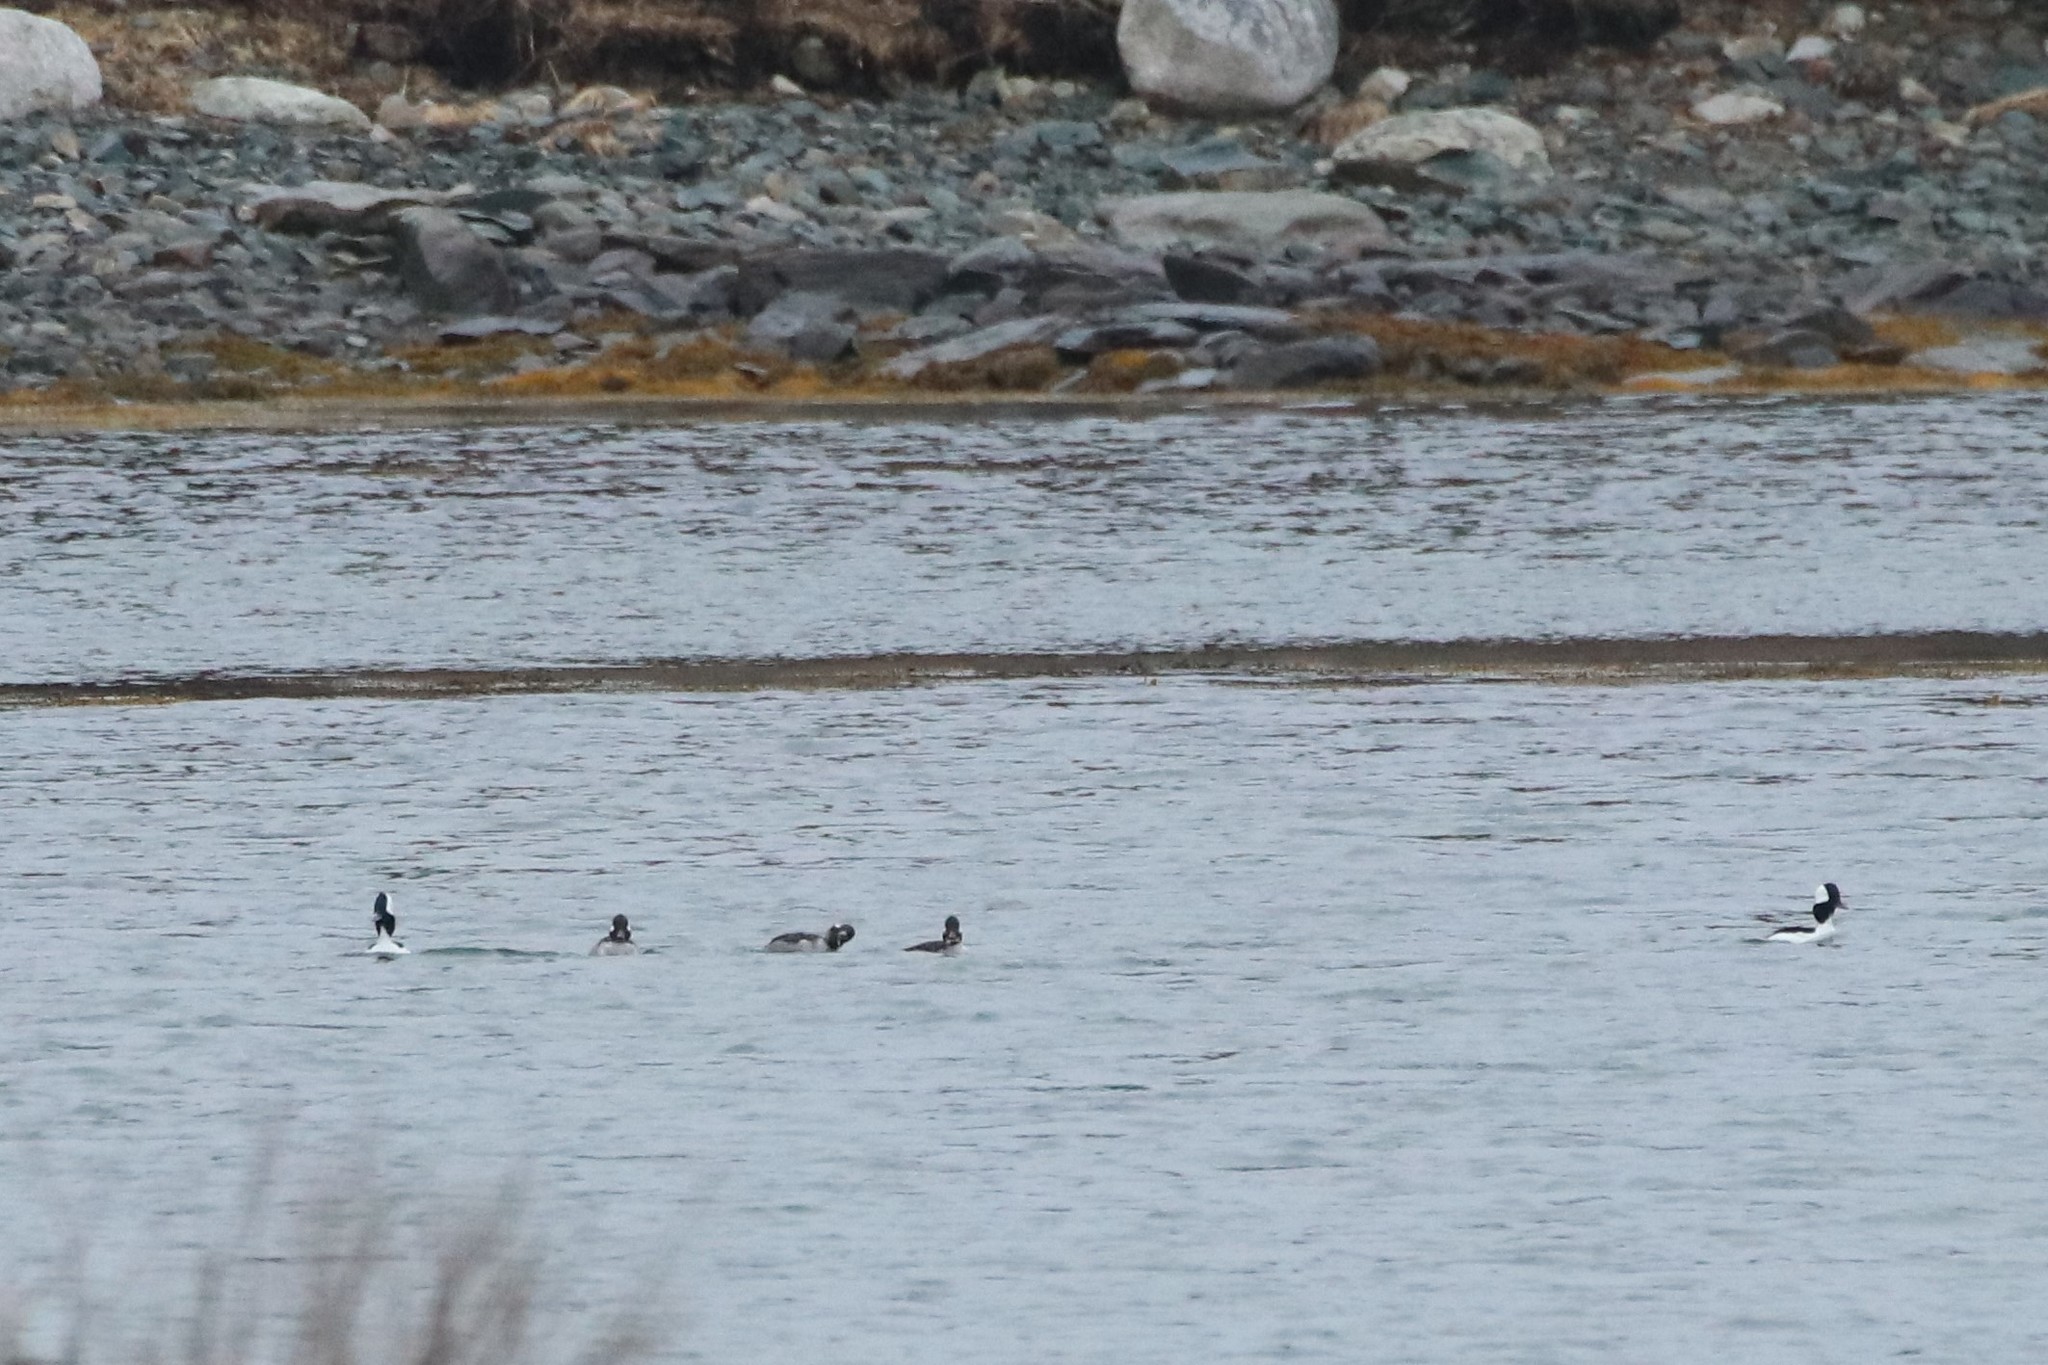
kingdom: Animalia
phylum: Chordata
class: Aves
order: Anseriformes
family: Anatidae
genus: Bucephala
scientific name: Bucephala albeola
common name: Bufflehead
